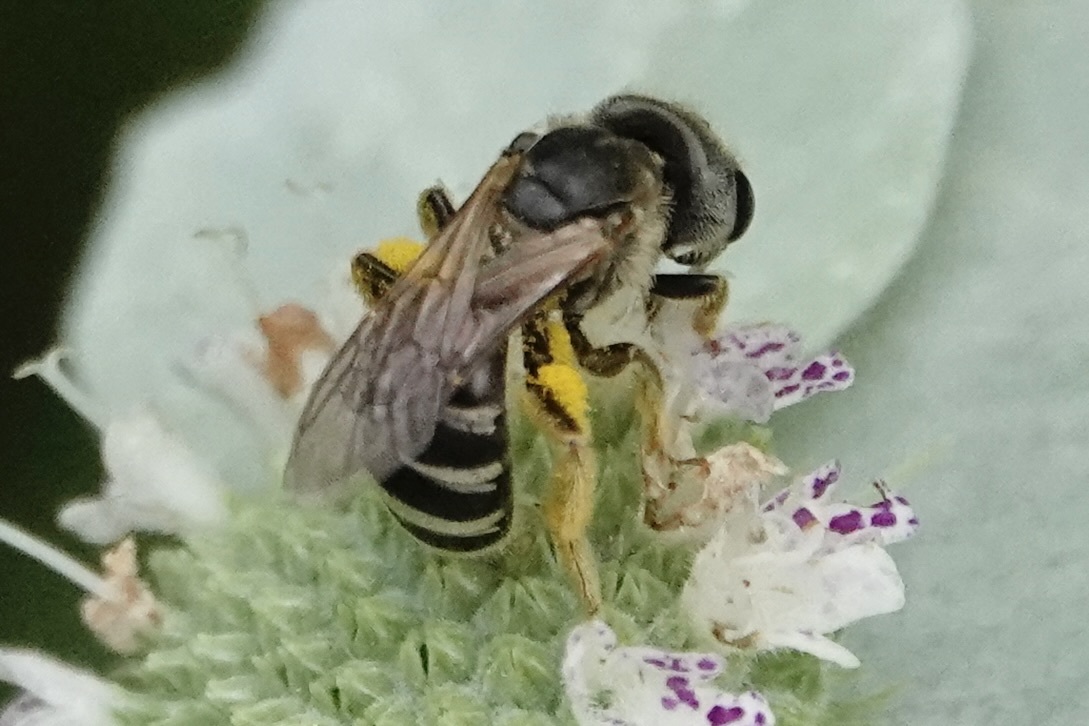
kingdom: Animalia
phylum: Arthropoda
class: Insecta
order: Hymenoptera
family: Halictidae
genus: Halictus
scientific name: Halictus ligatus
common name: Ligated furrow bee
